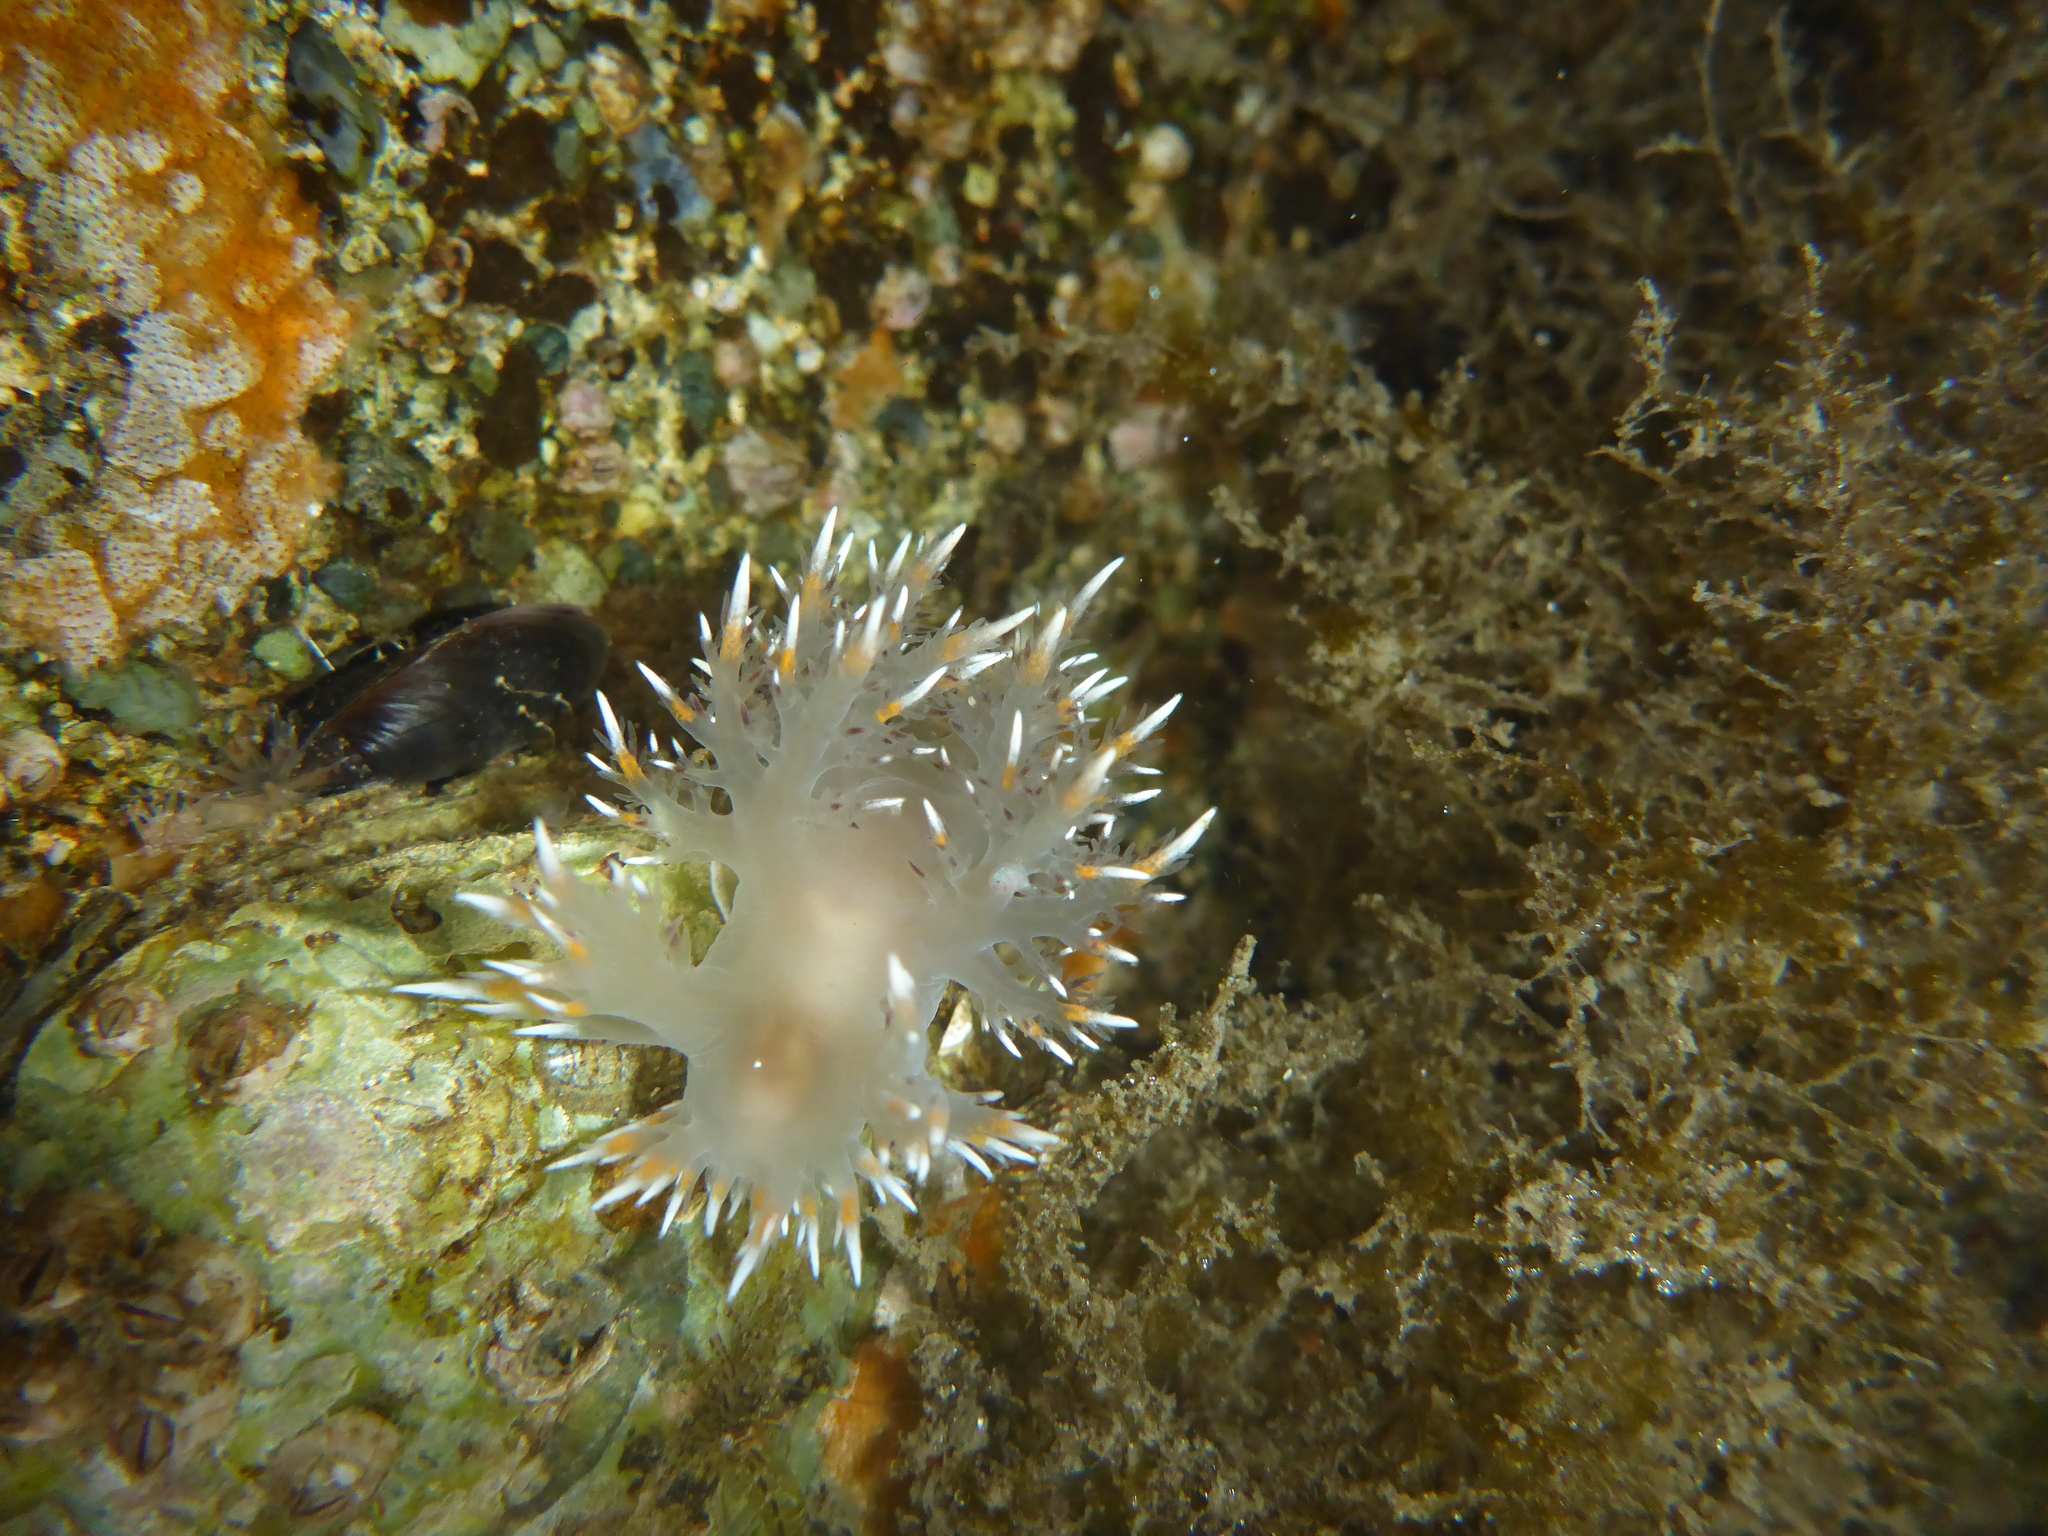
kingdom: Animalia
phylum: Mollusca
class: Gastropoda
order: Nudibranchia
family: Dendronotidae
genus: Dendronotus
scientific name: Dendronotus iris
